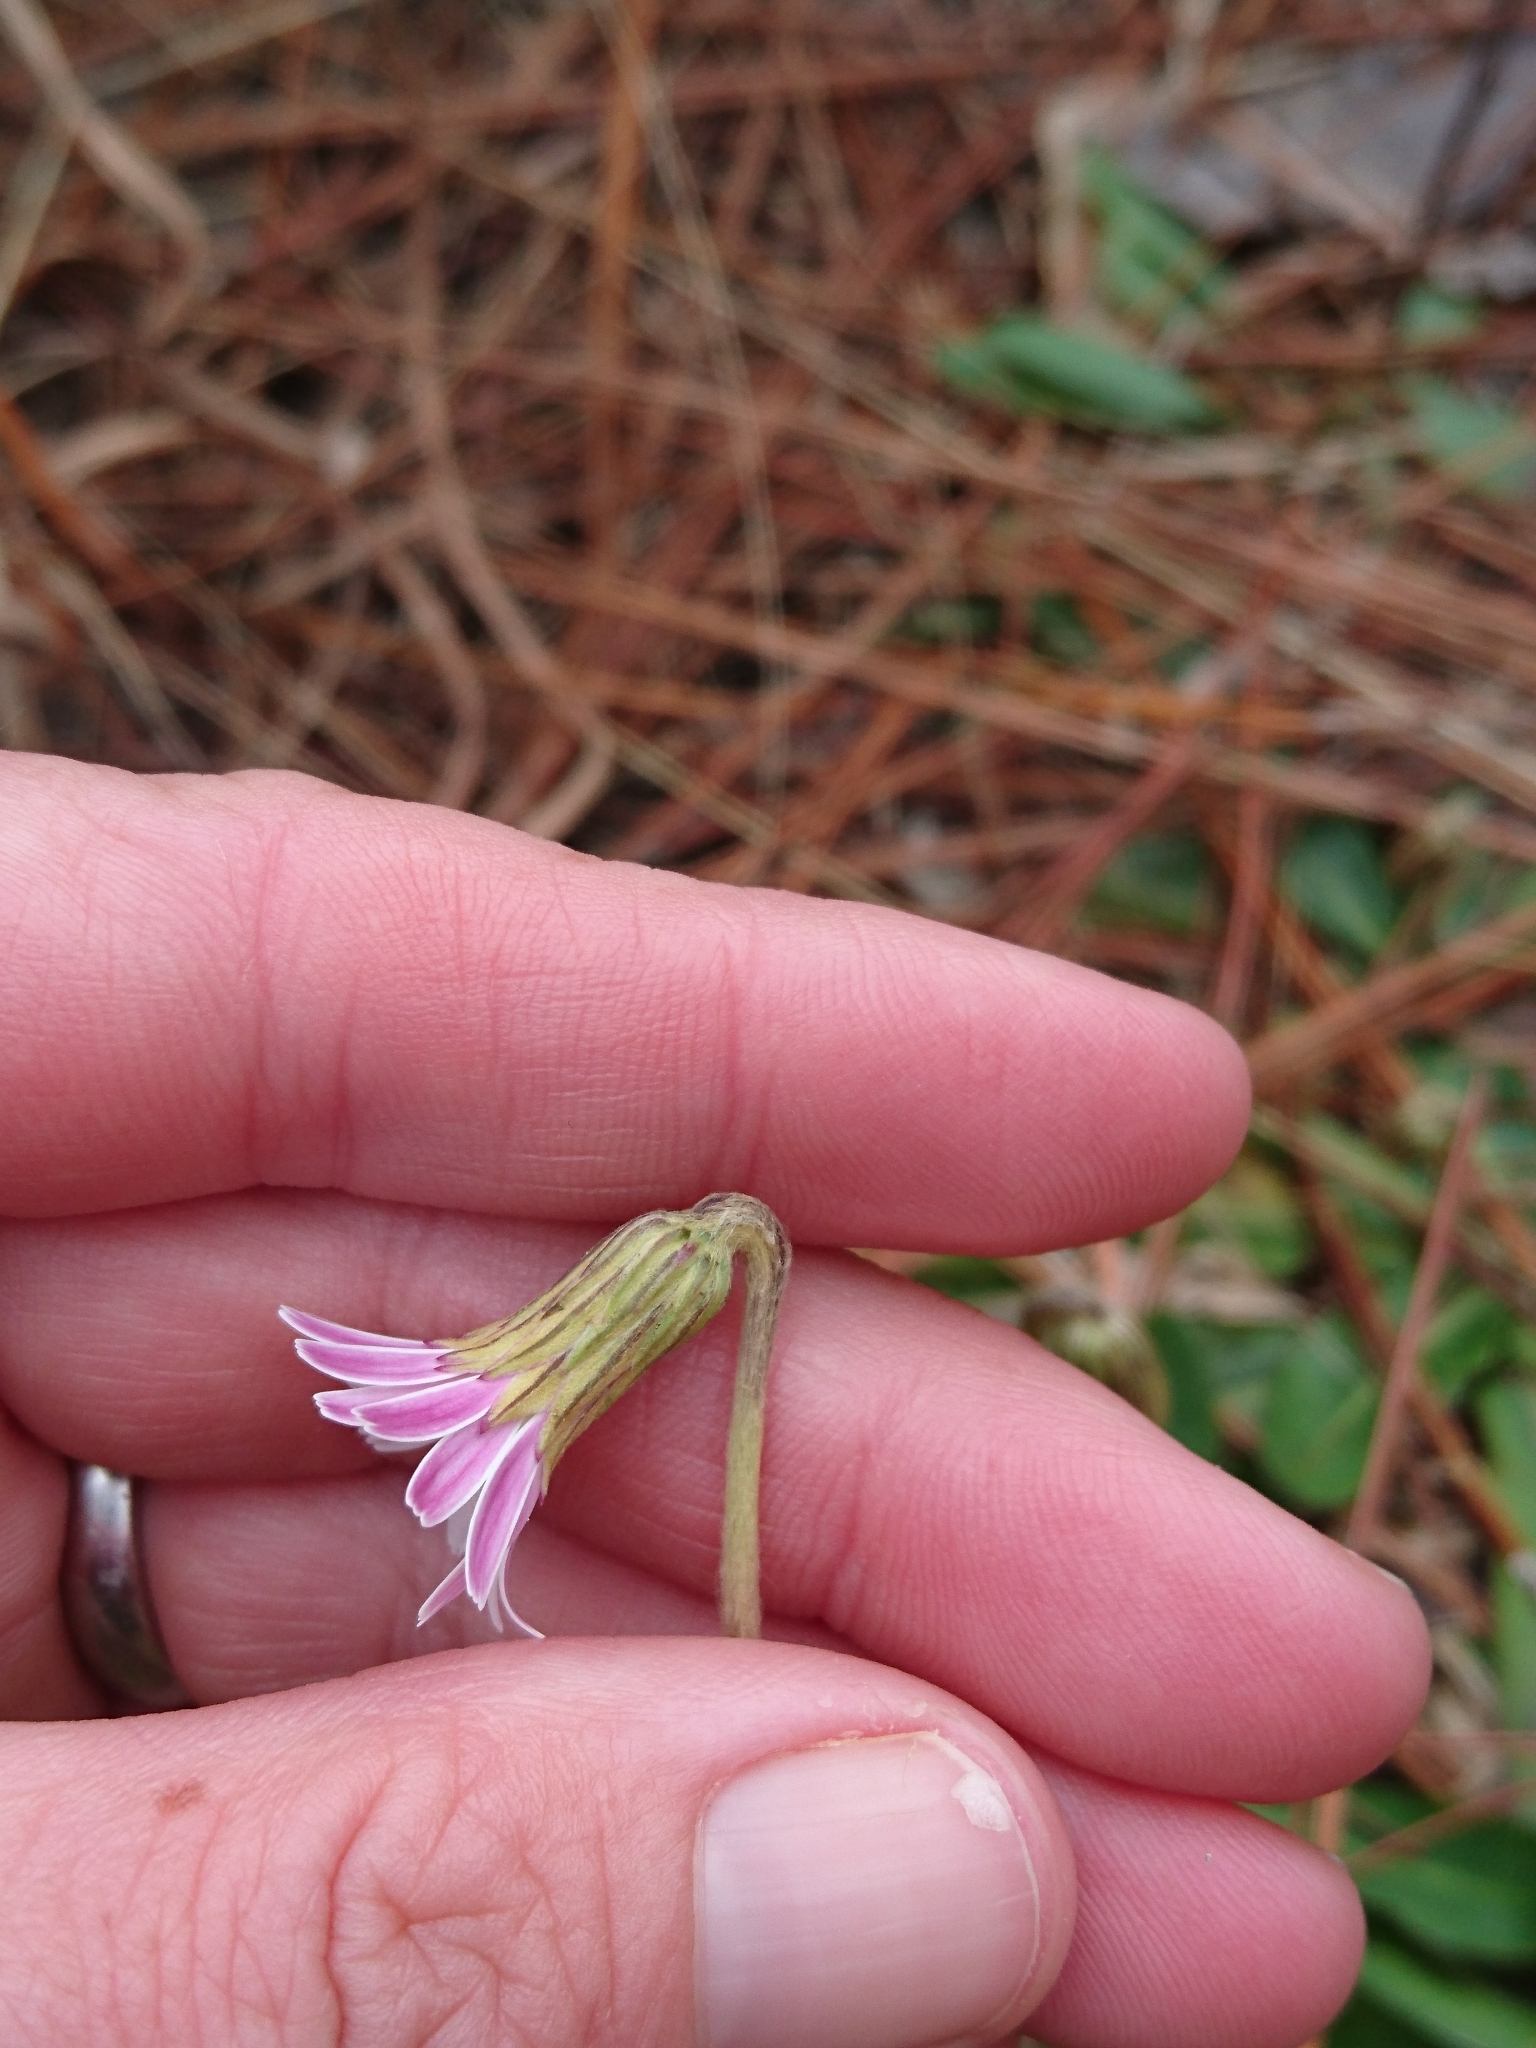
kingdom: Plantae
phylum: Tracheophyta
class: Magnoliopsida
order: Asterales
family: Asteraceae
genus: Chaptalia
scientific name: Chaptalia tomentosa
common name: Woolly sunbonnet
